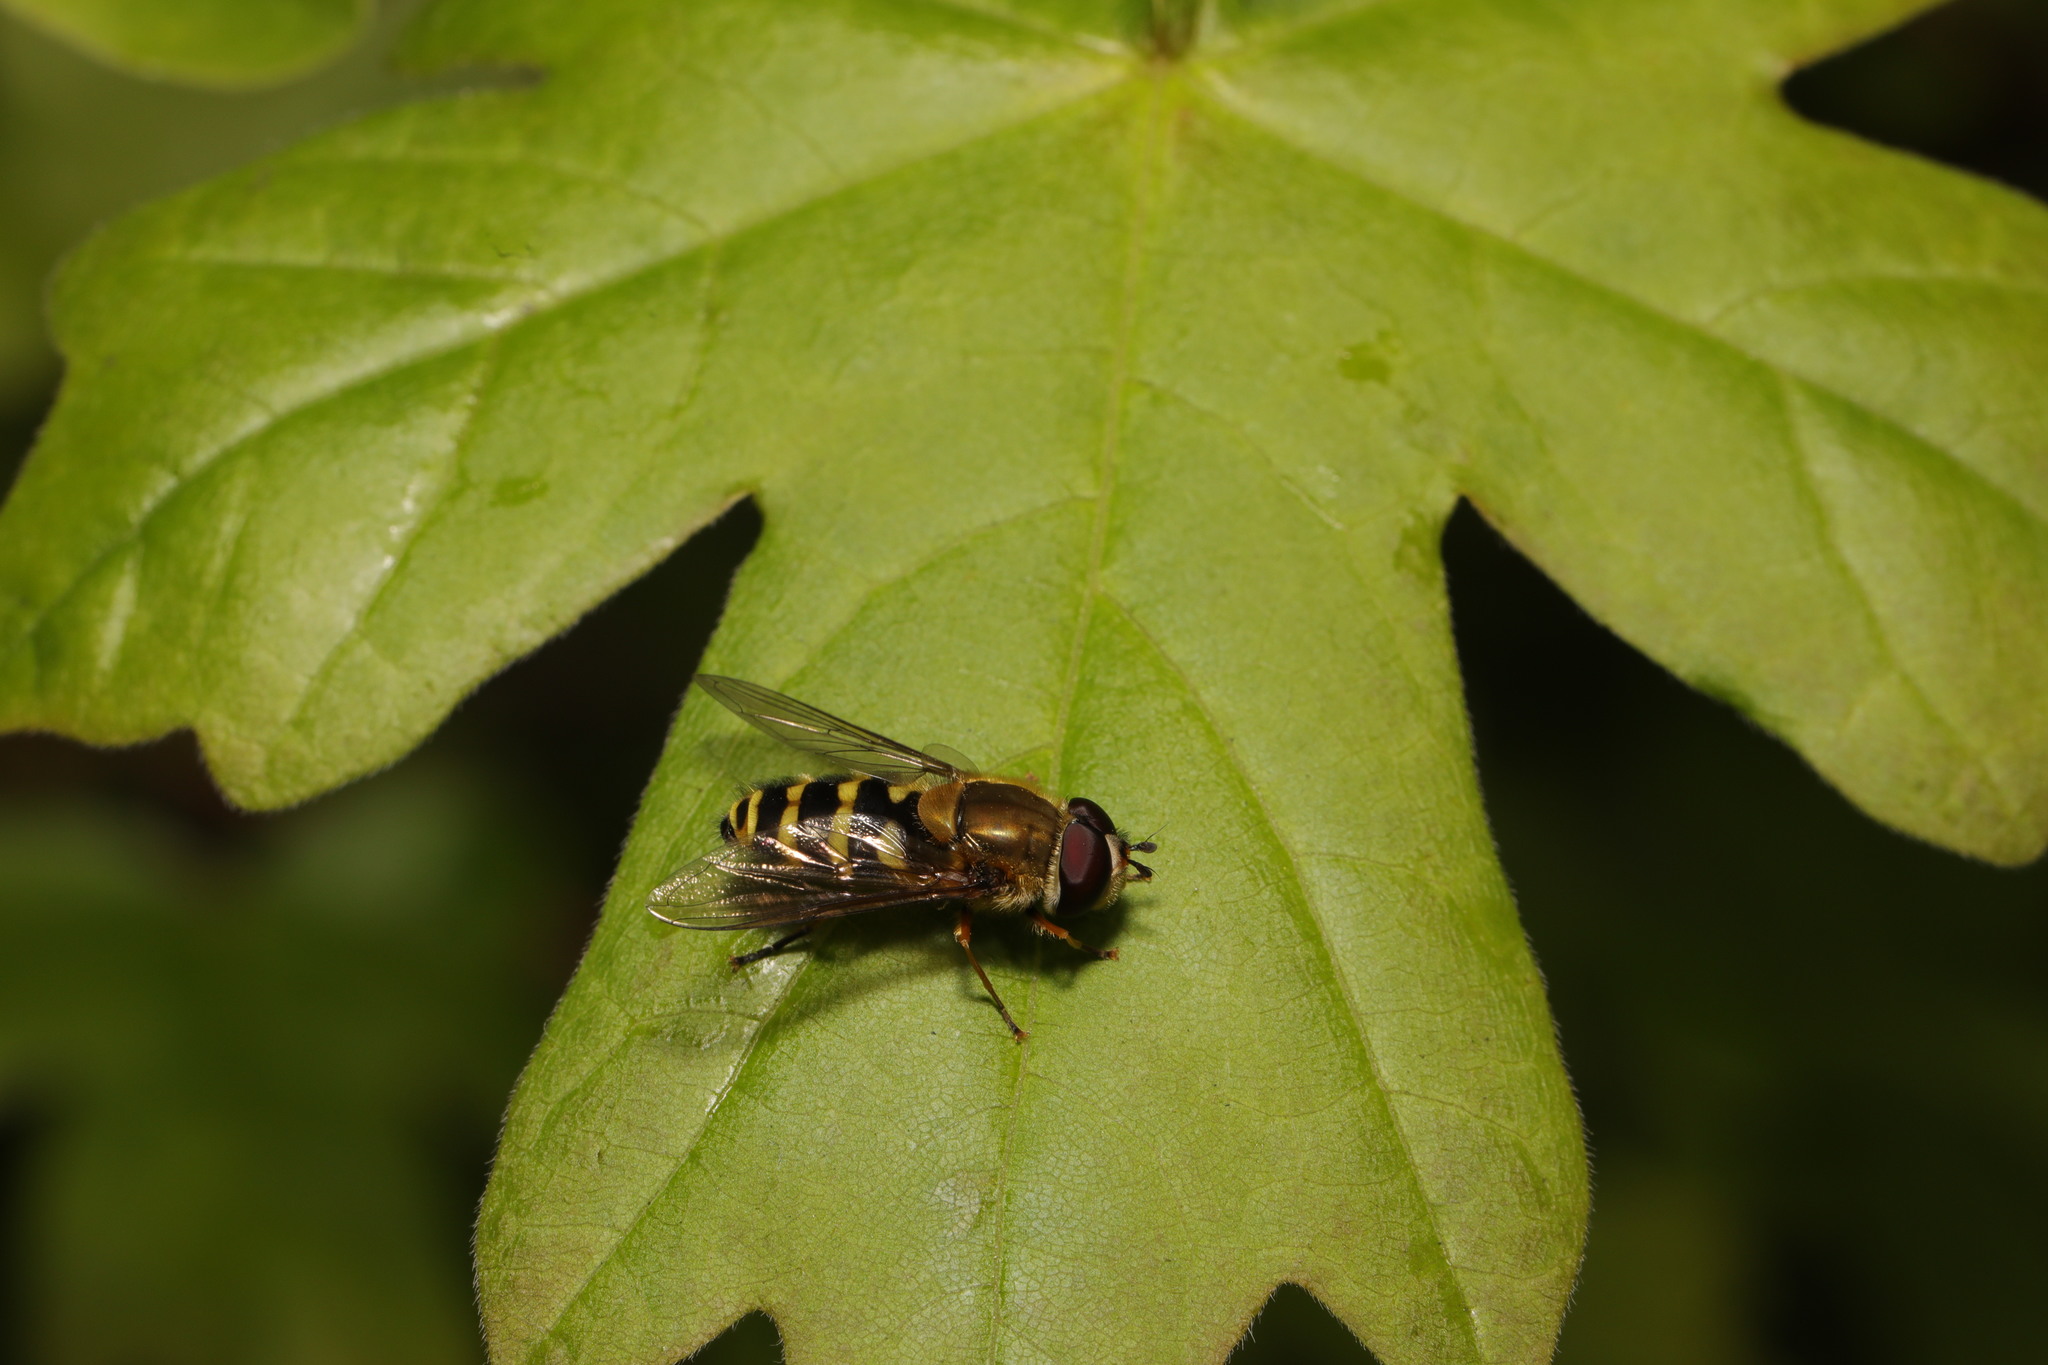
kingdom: Animalia
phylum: Arthropoda
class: Insecta
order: Diptera
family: Syrphidae
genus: Syrphus
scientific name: Syrphus
